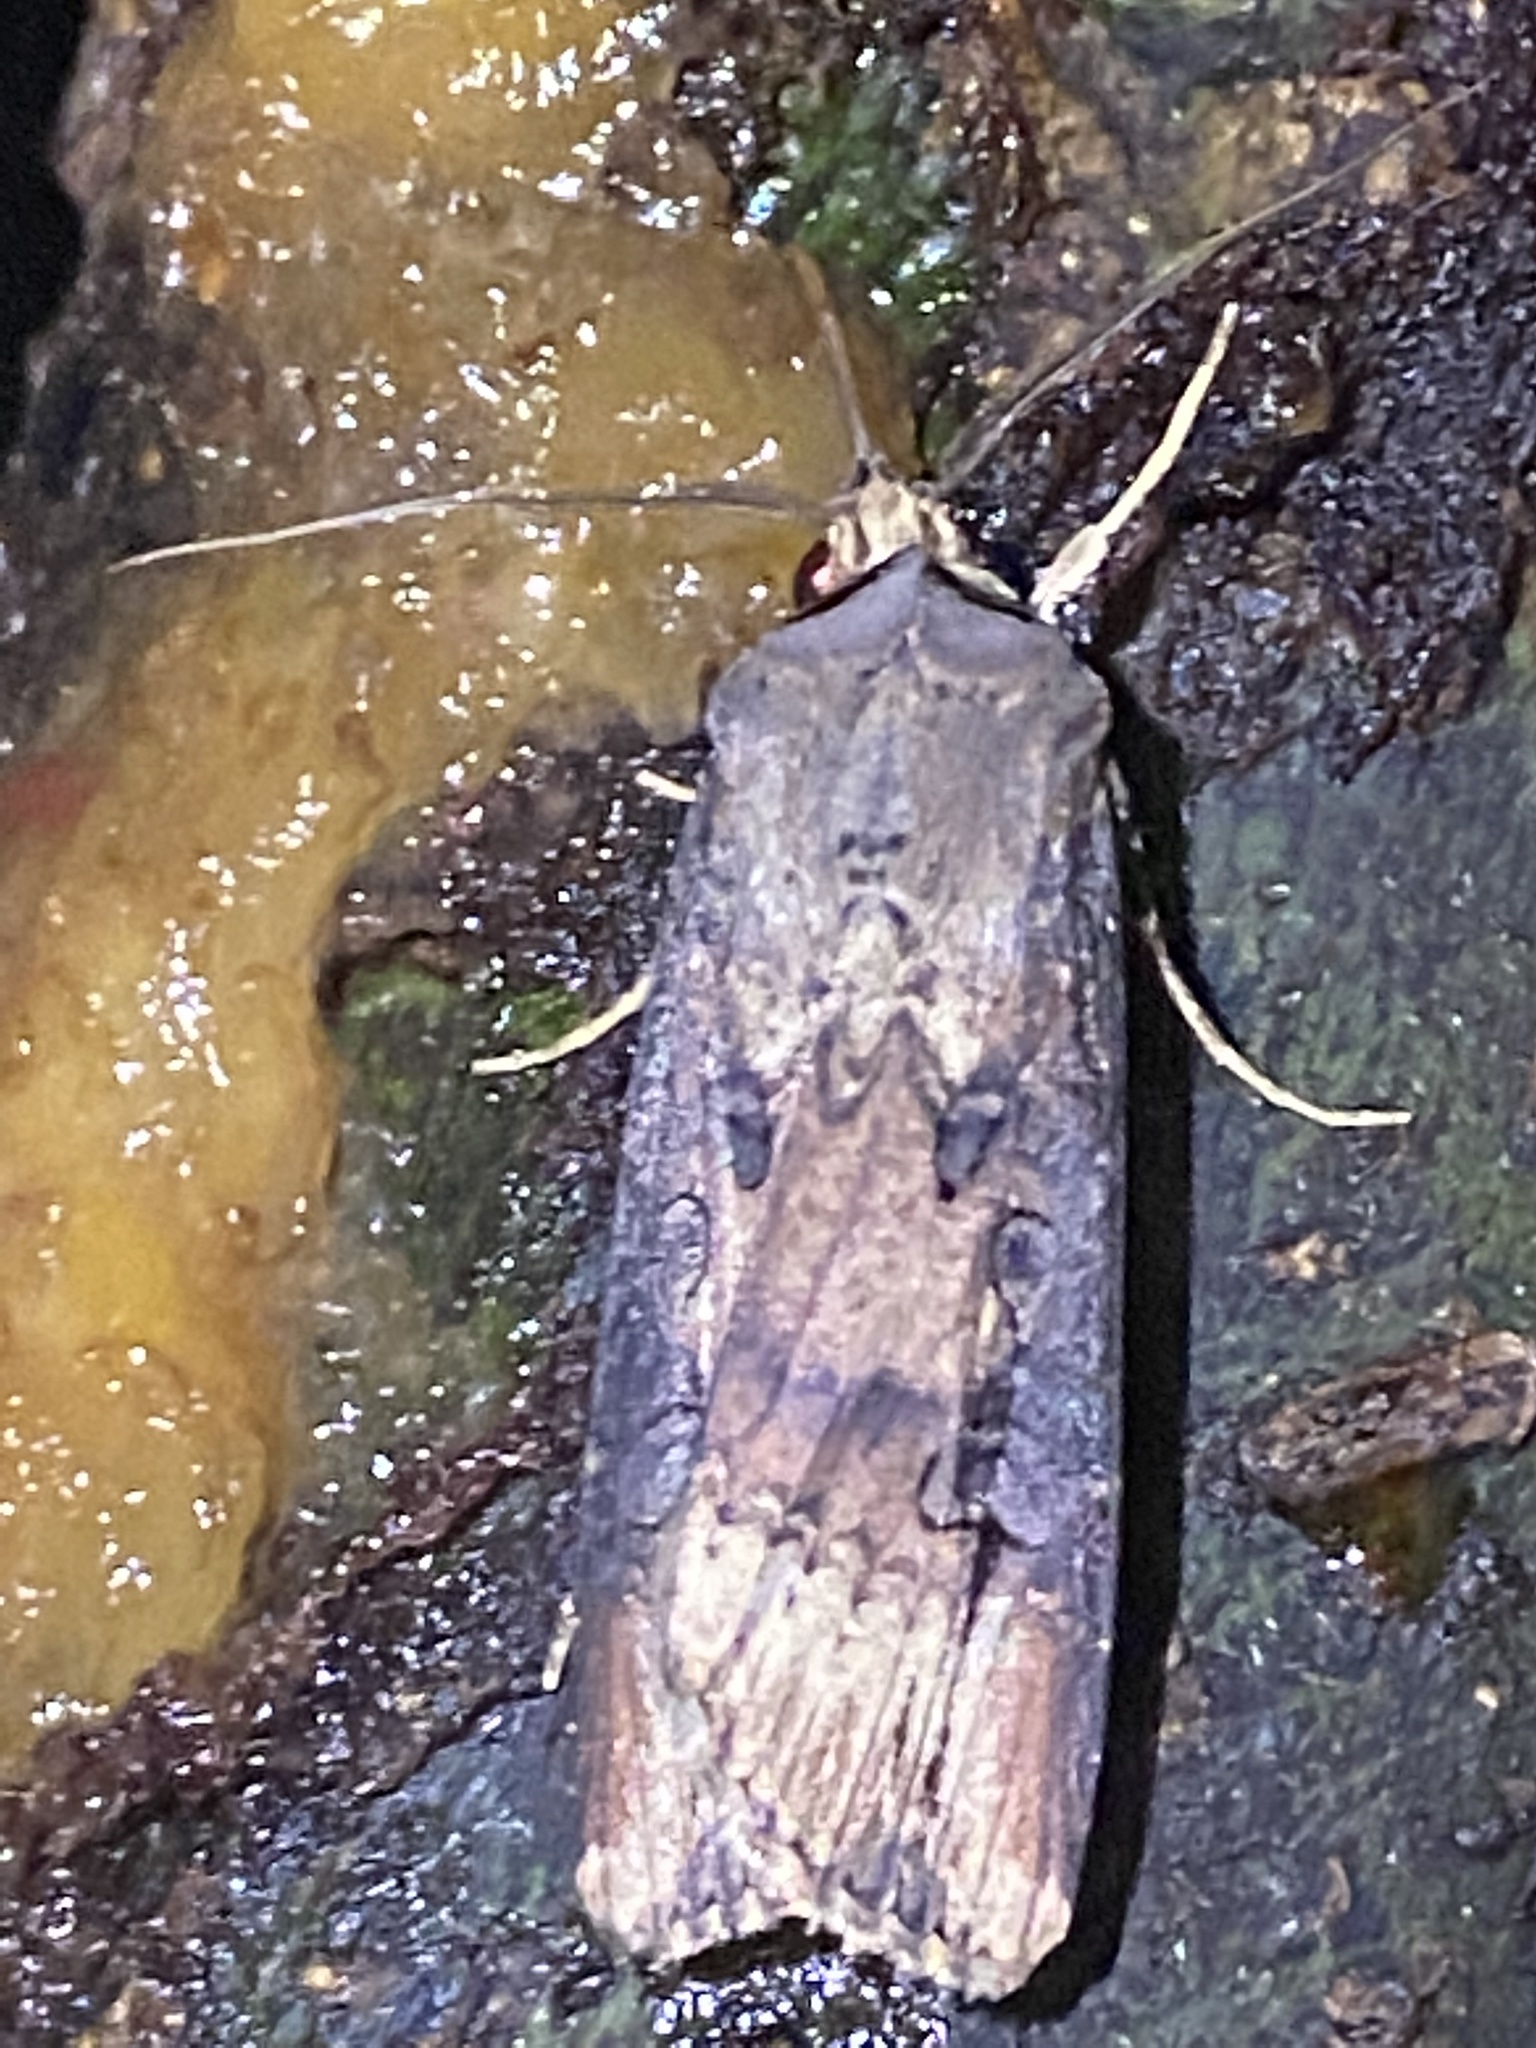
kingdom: Animalia
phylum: Arthropoda
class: Insecta
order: Lepidoptera
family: Noctuidae
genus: Agrotis
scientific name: Agrotis ipsilon
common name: Dark sword-grass
